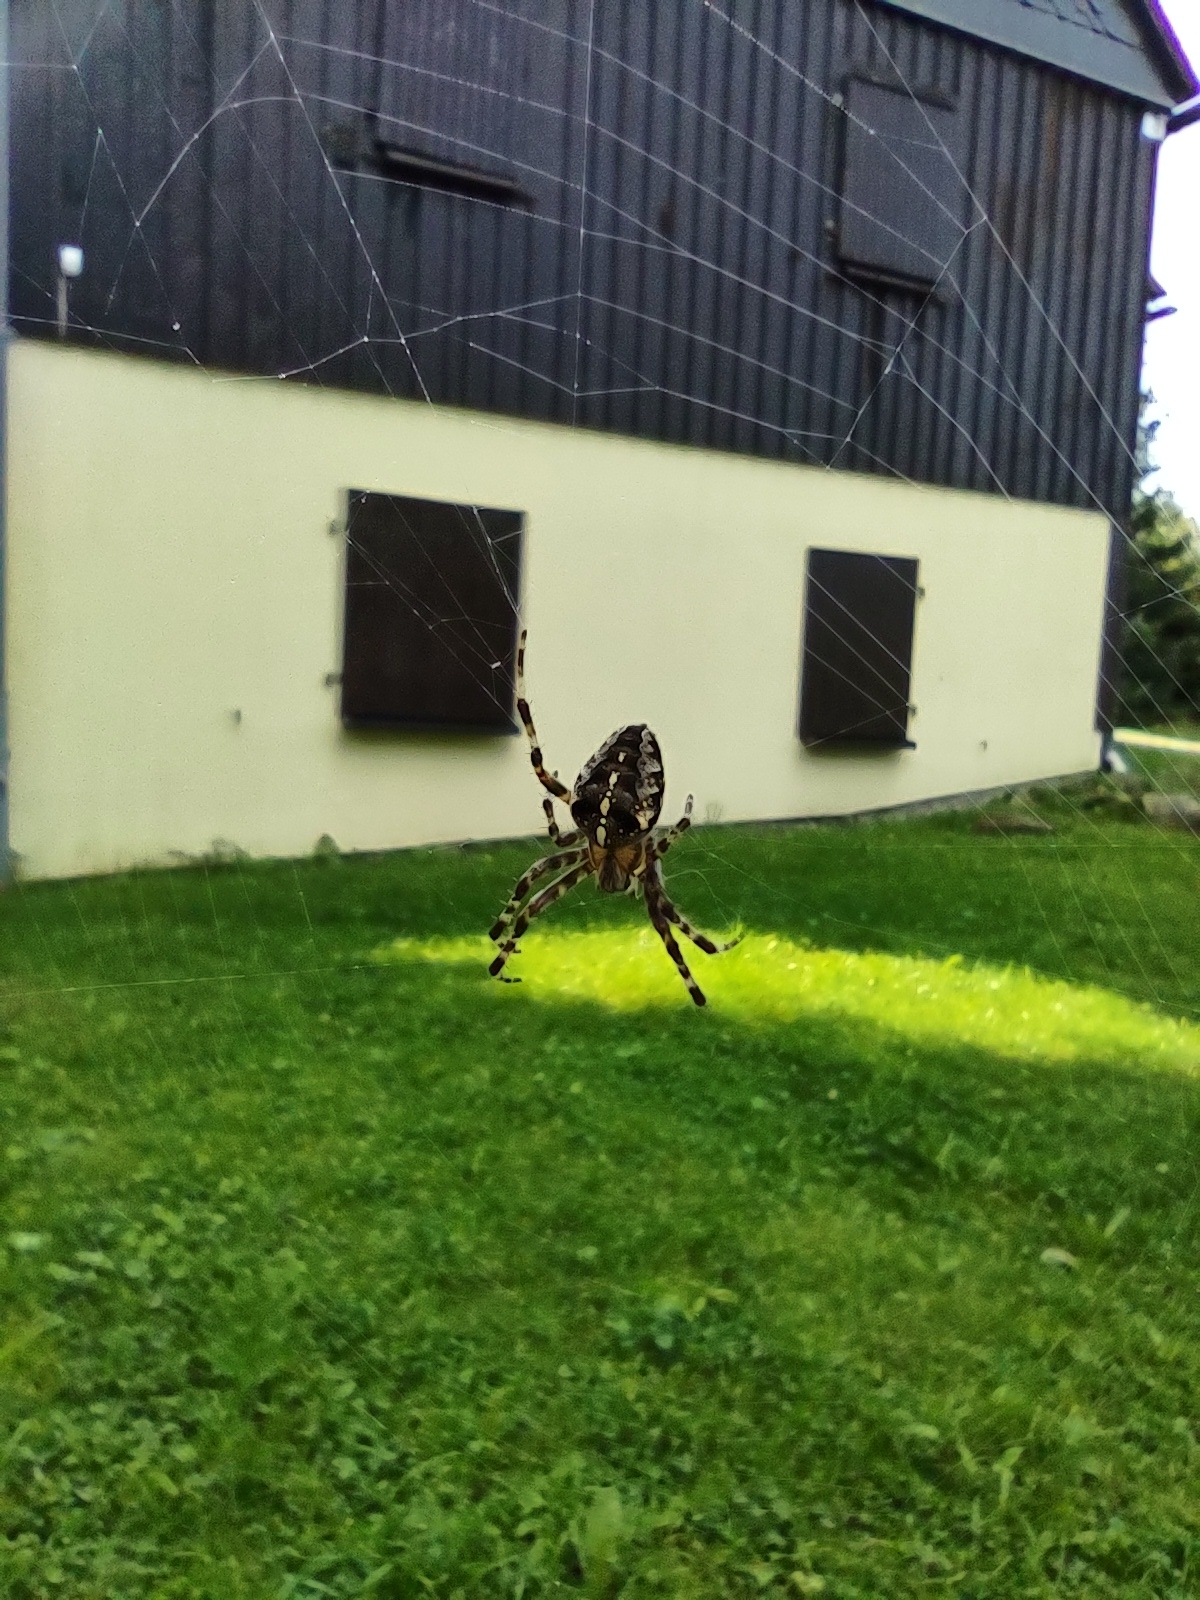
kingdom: Animalia
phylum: Arthropoda
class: Arachnida
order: Araneae
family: Araneidae
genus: Araneus
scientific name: Araneus diadematus
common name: Cross orbweaver
